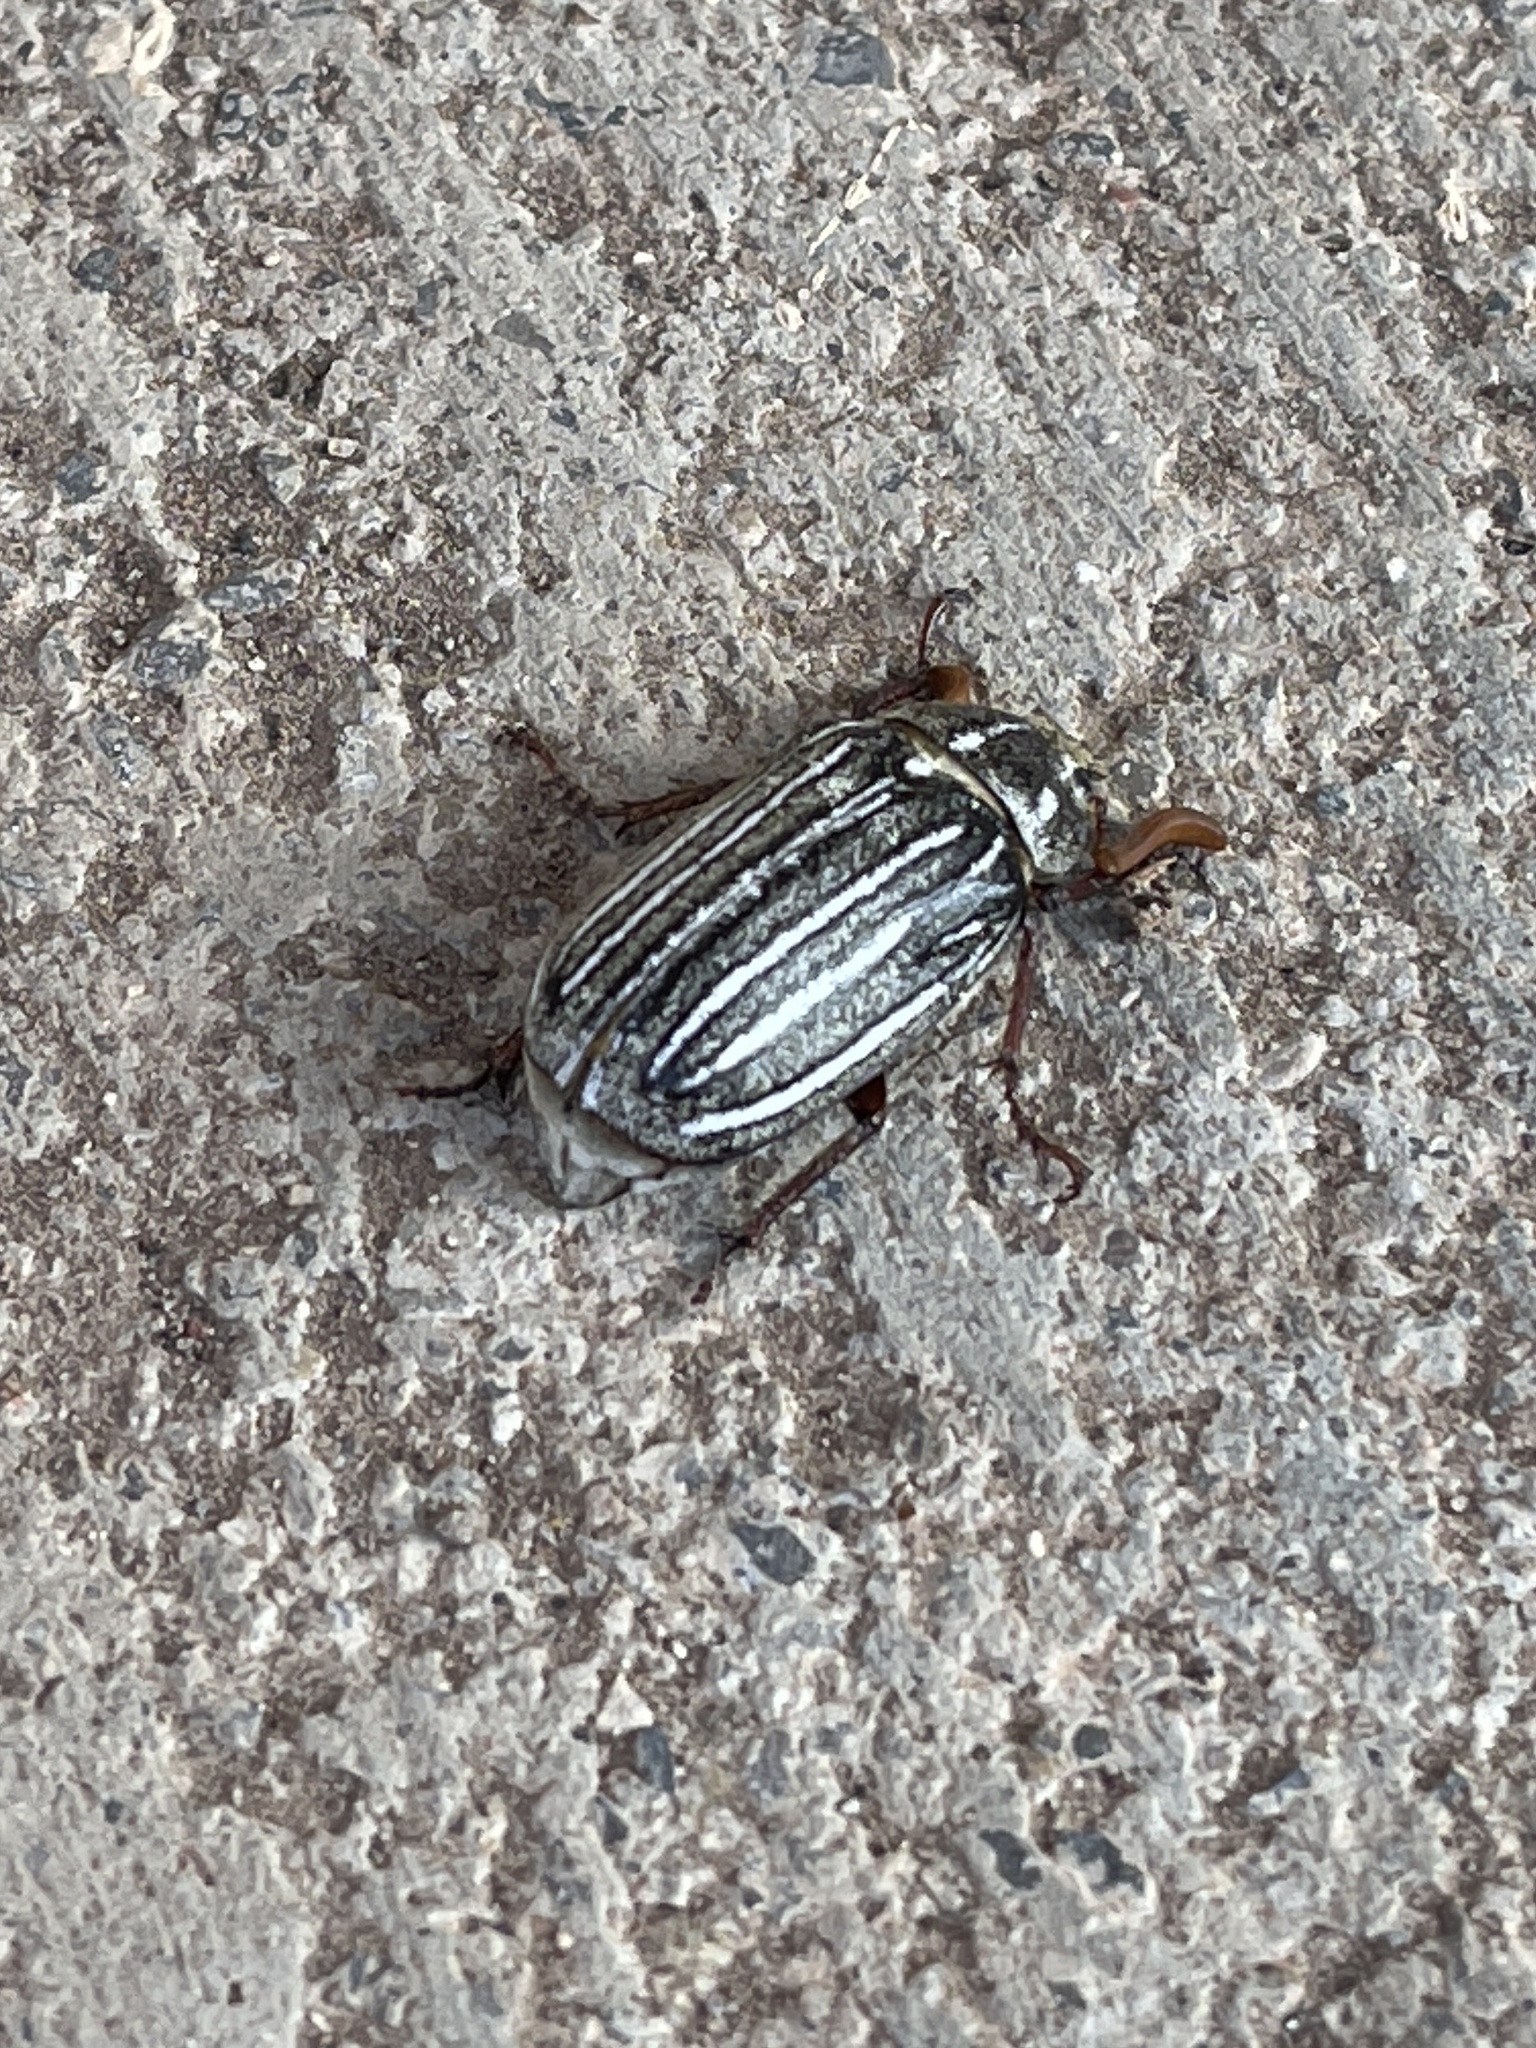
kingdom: Animalia
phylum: Arthropoda
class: Insecta
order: Coleoptera
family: Scarabaeidae
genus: Polyphylla
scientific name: Polyphylla decemlineata
